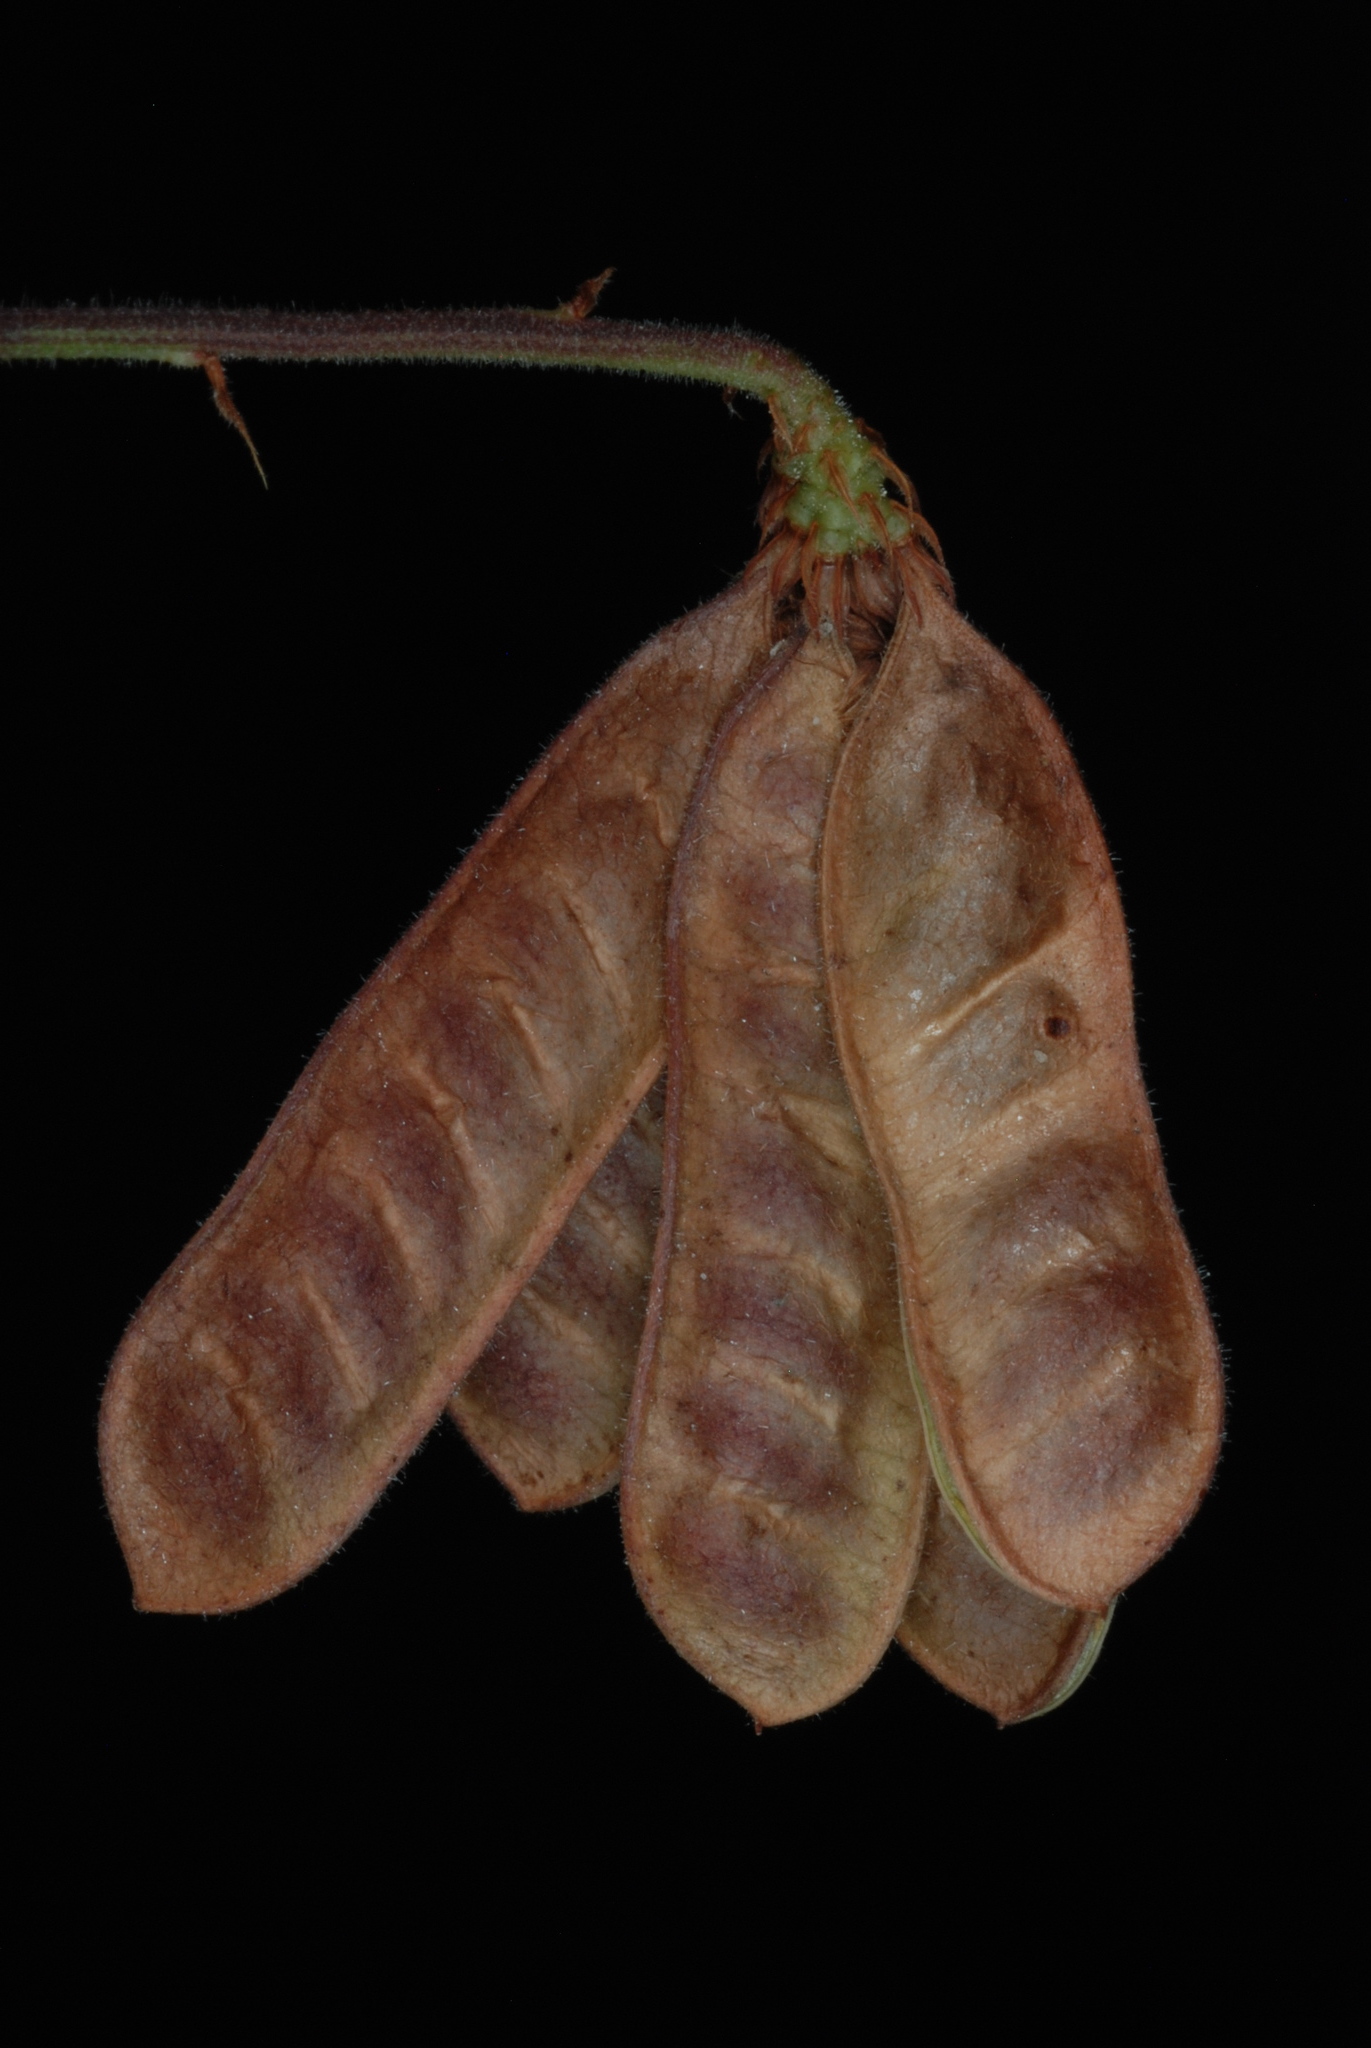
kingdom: Plantae
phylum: Tracheophyta
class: Magnoliopsida
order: Fabales
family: Fabaceae
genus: Neptunia
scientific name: Neptunia pubescens
